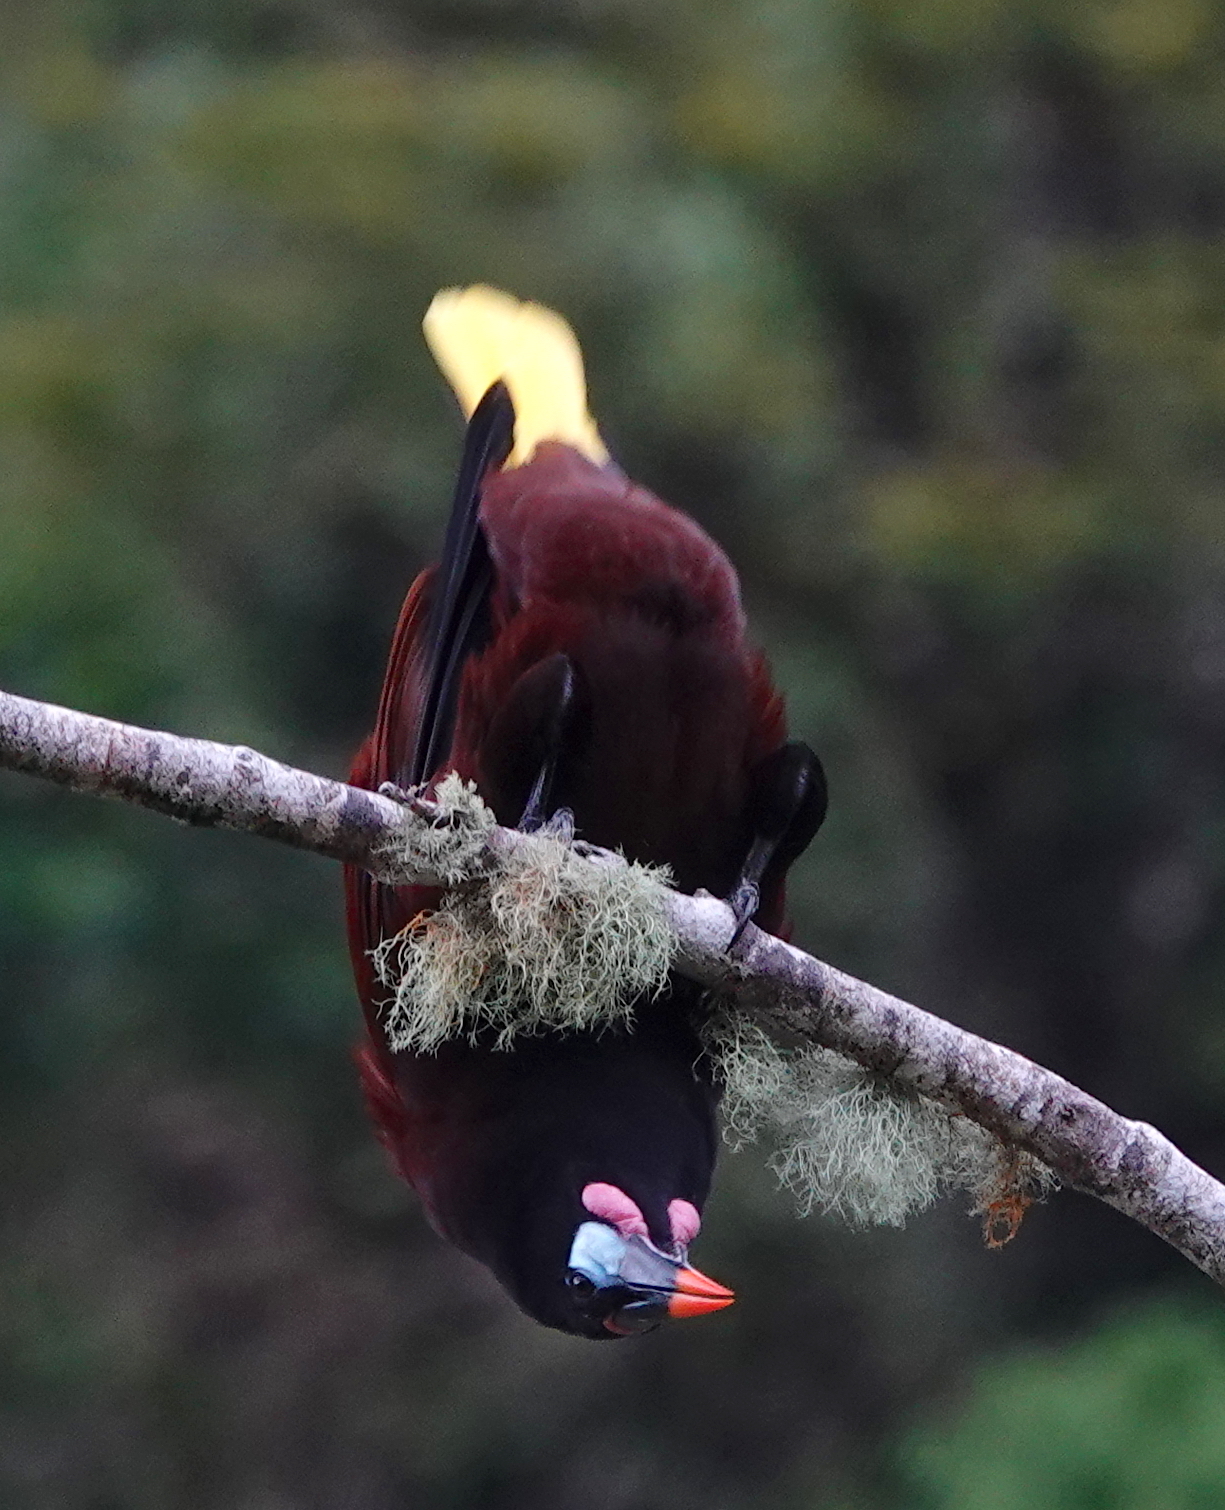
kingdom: Animalia
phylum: Chordata
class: Aves
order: Passeriformes
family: Icteridae
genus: Psarocolius
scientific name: Psarocolius montezuma
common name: Montezuma oropendola
